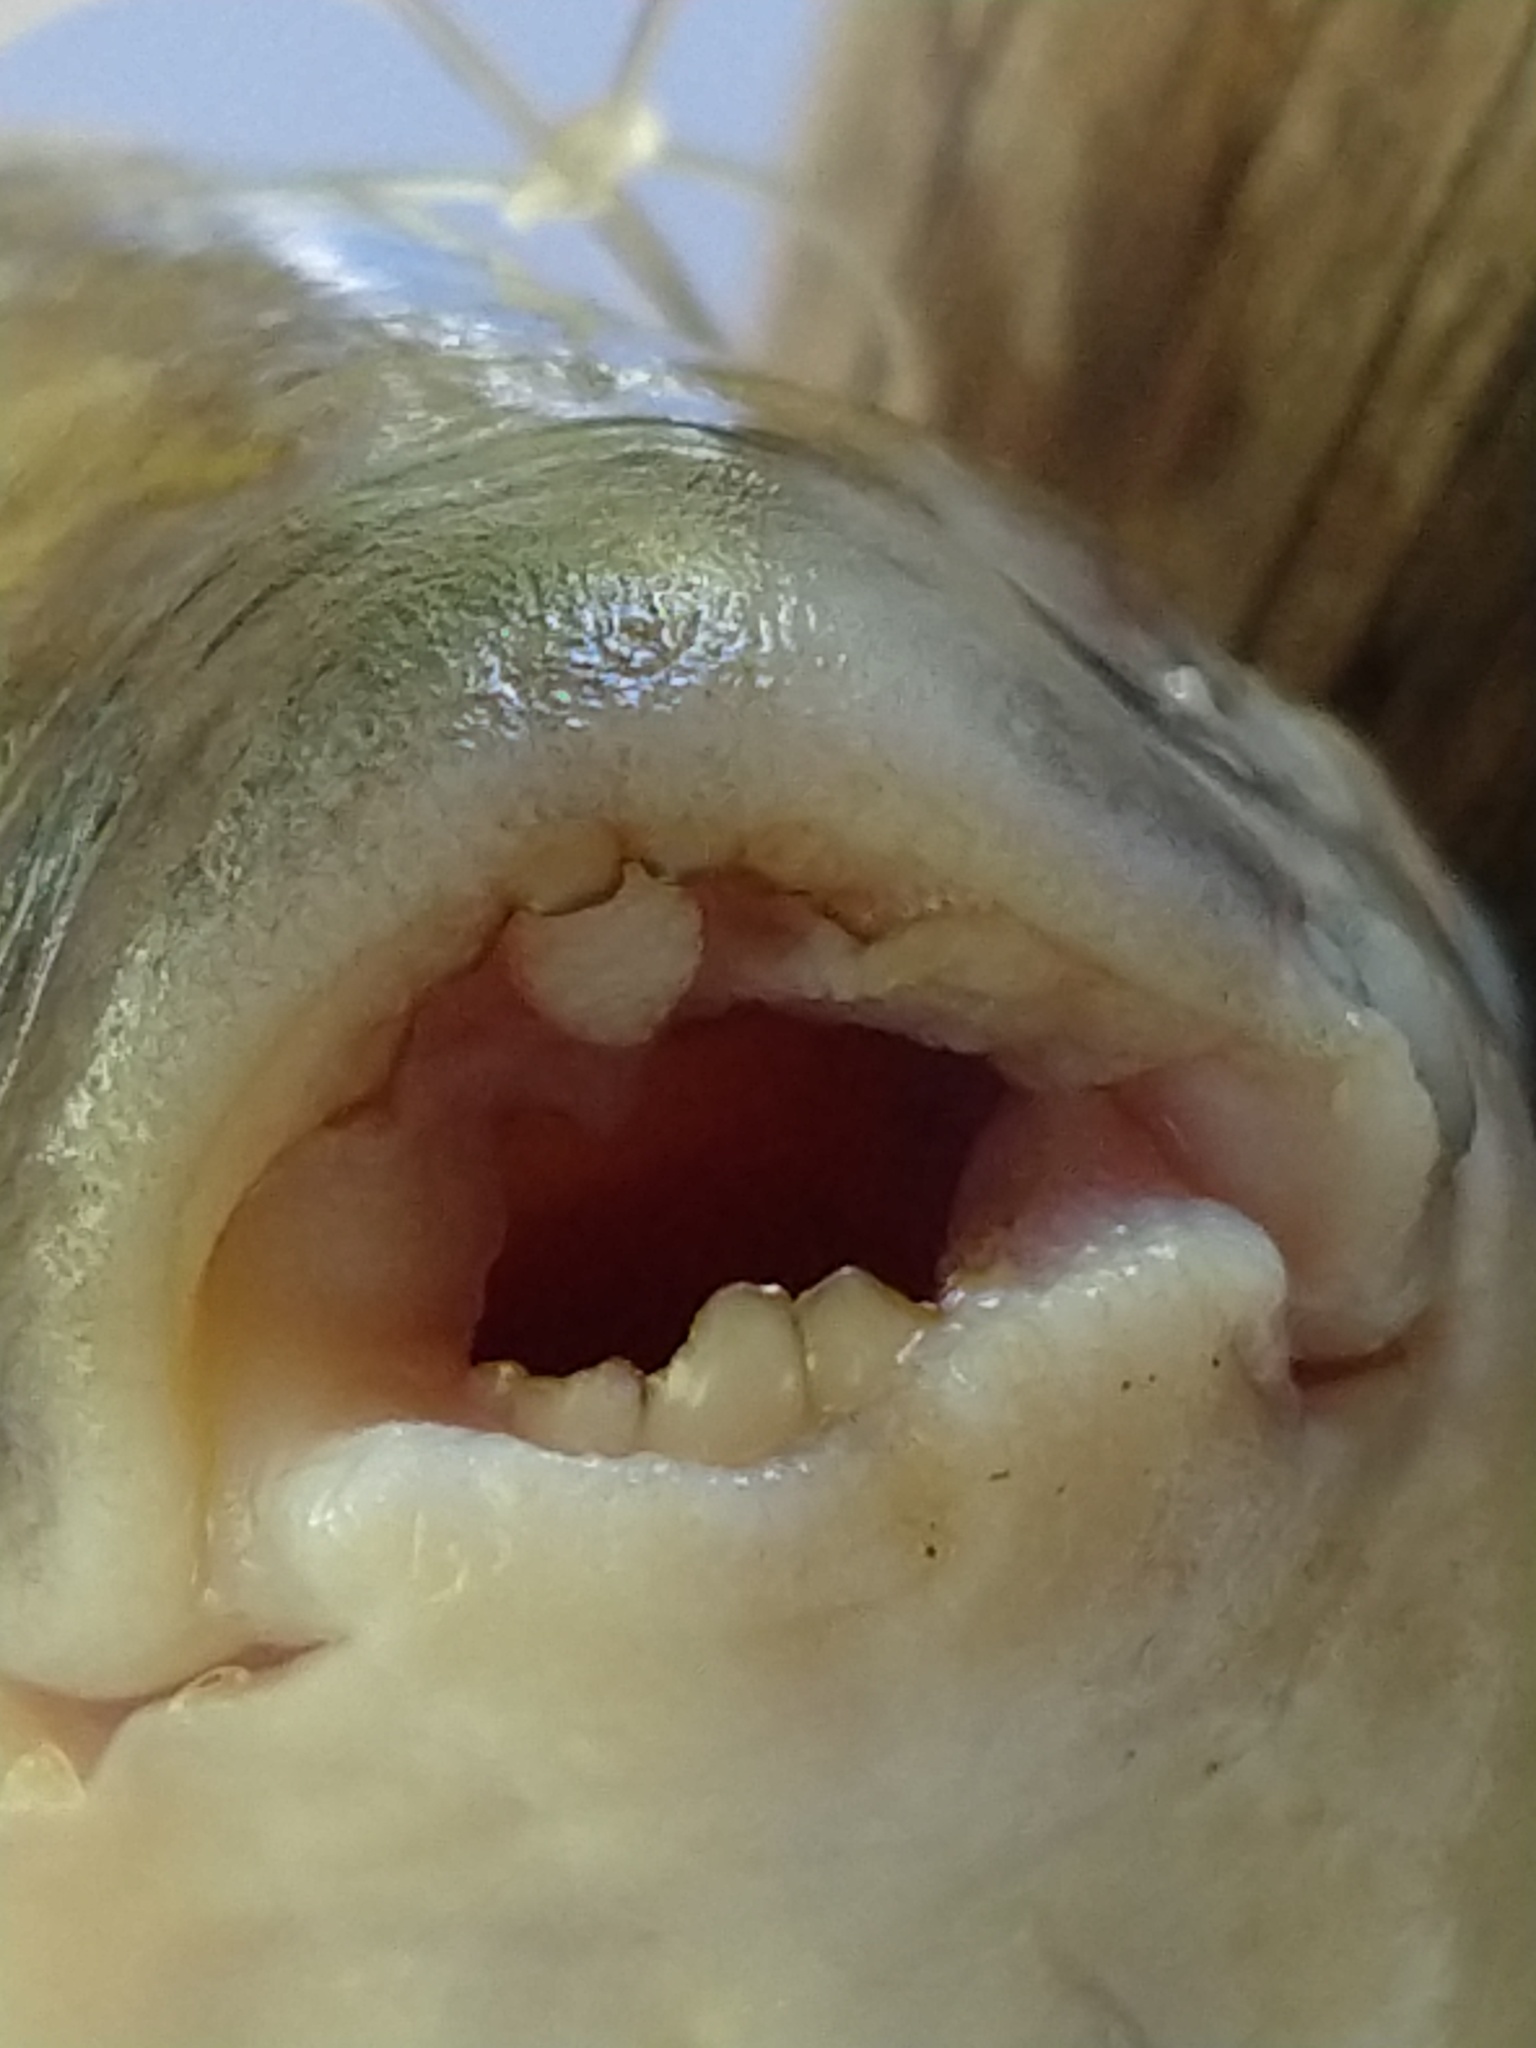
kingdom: Animalia
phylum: Chordata
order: Characiformes
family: Anostomidae
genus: Leporinus
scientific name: Leporinus obtusidens
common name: Characin
